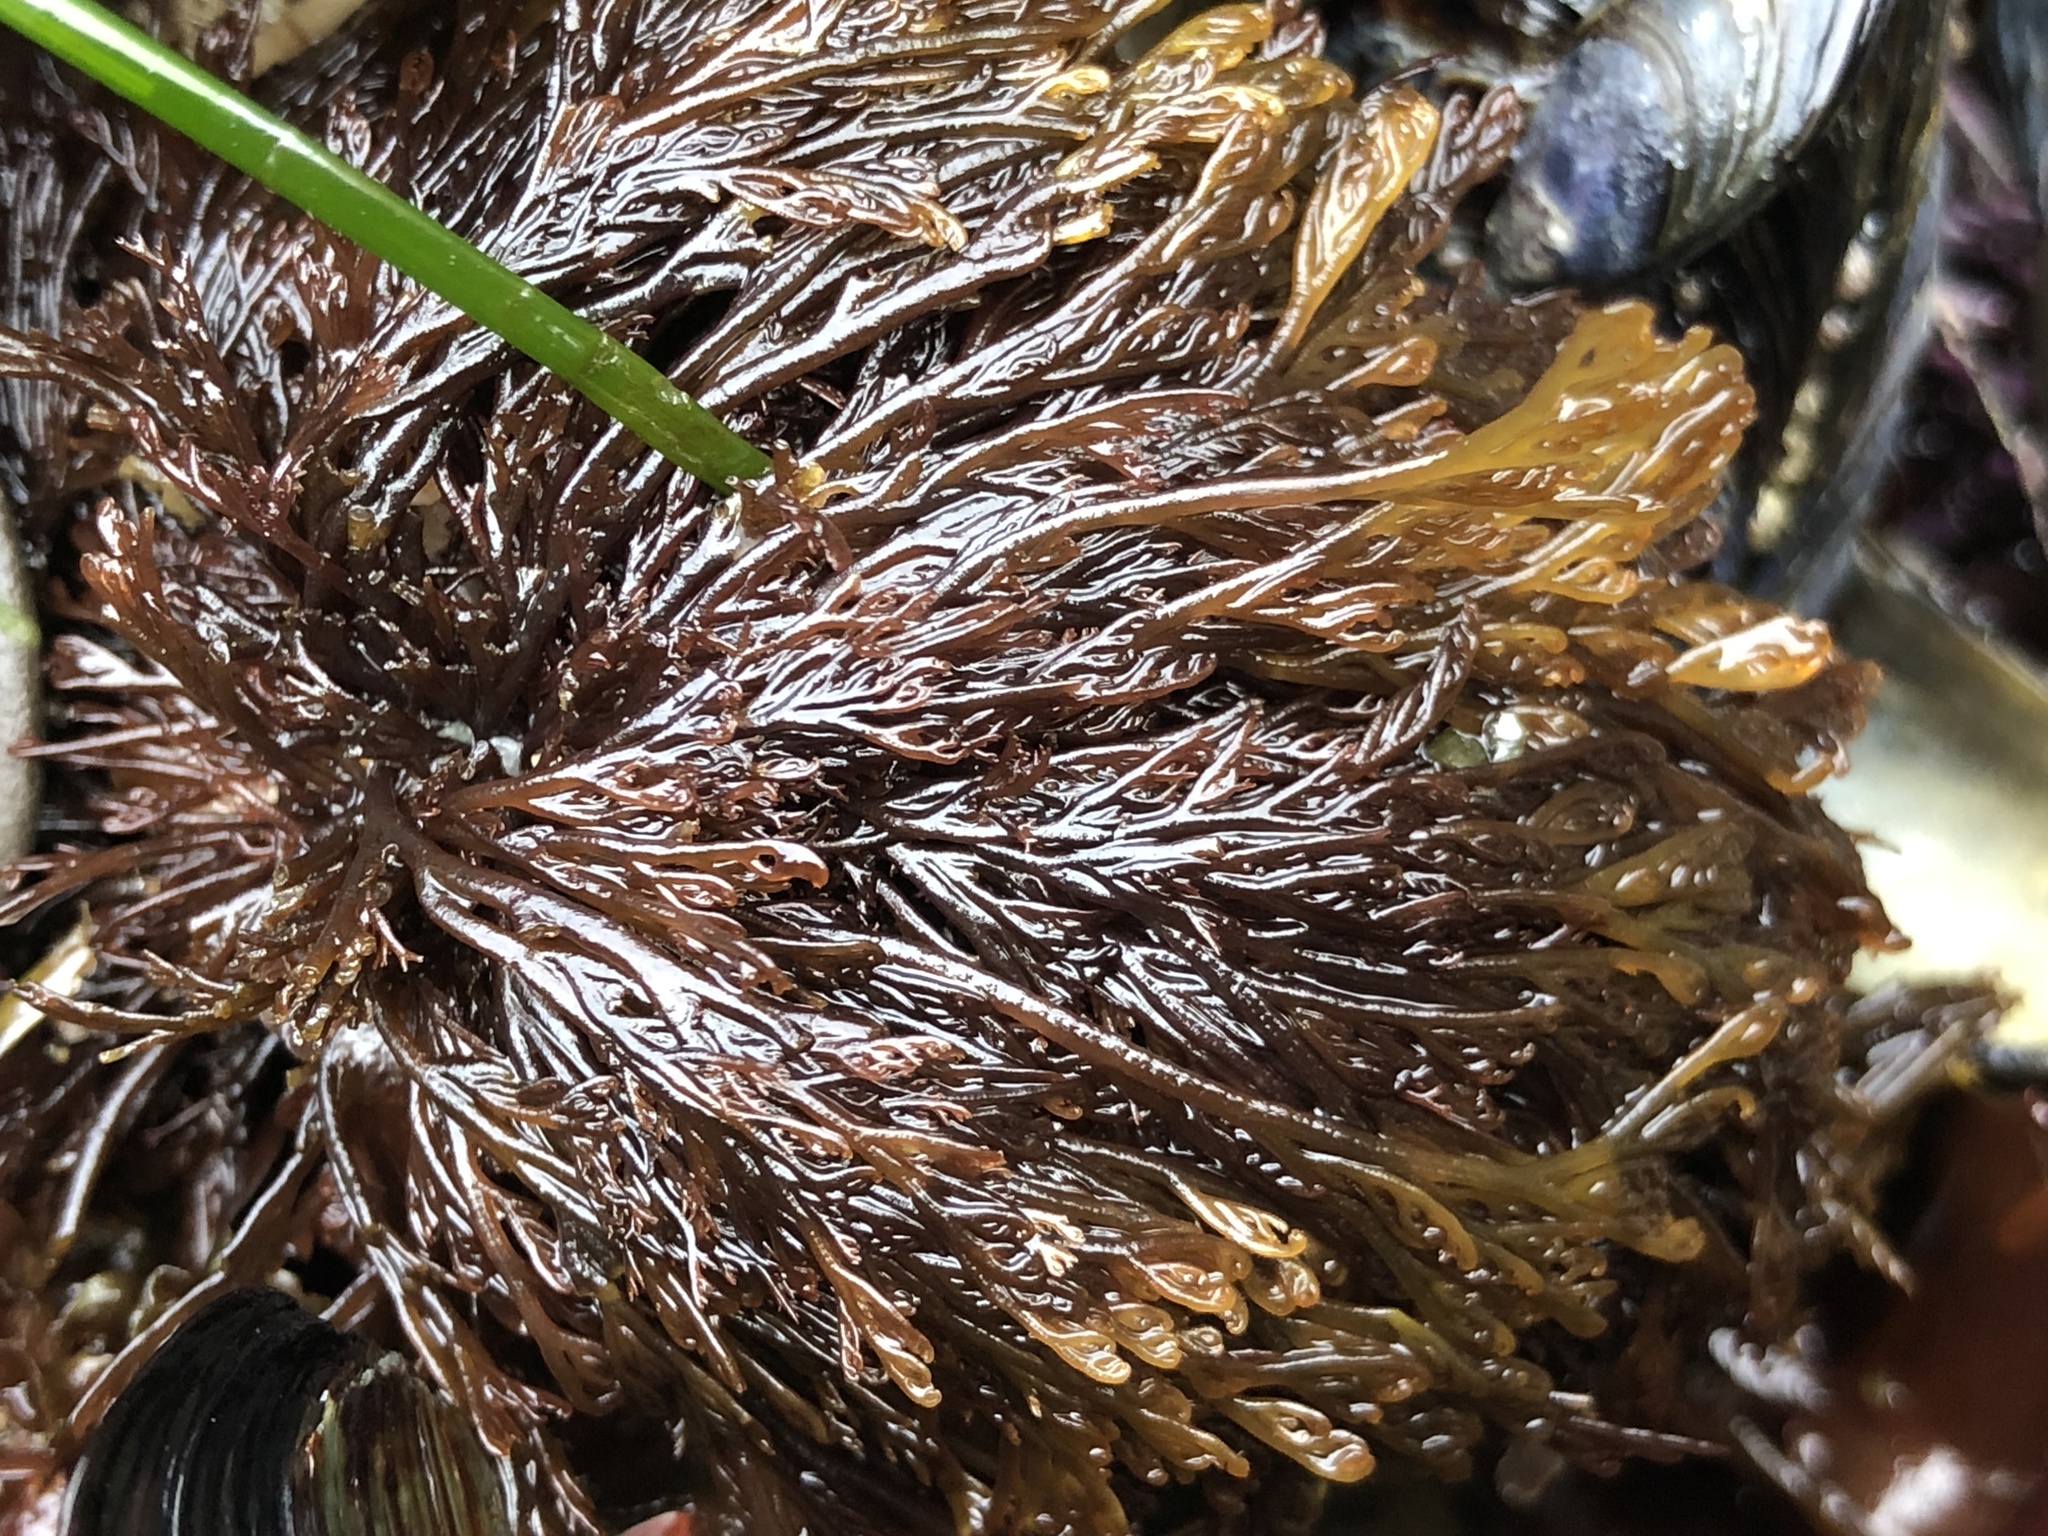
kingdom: Plantae
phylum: Rhodophyta
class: Florideophyceae
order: Ceramiales
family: Ceramiaceae
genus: Microcladia
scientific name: Microcladia borealis
